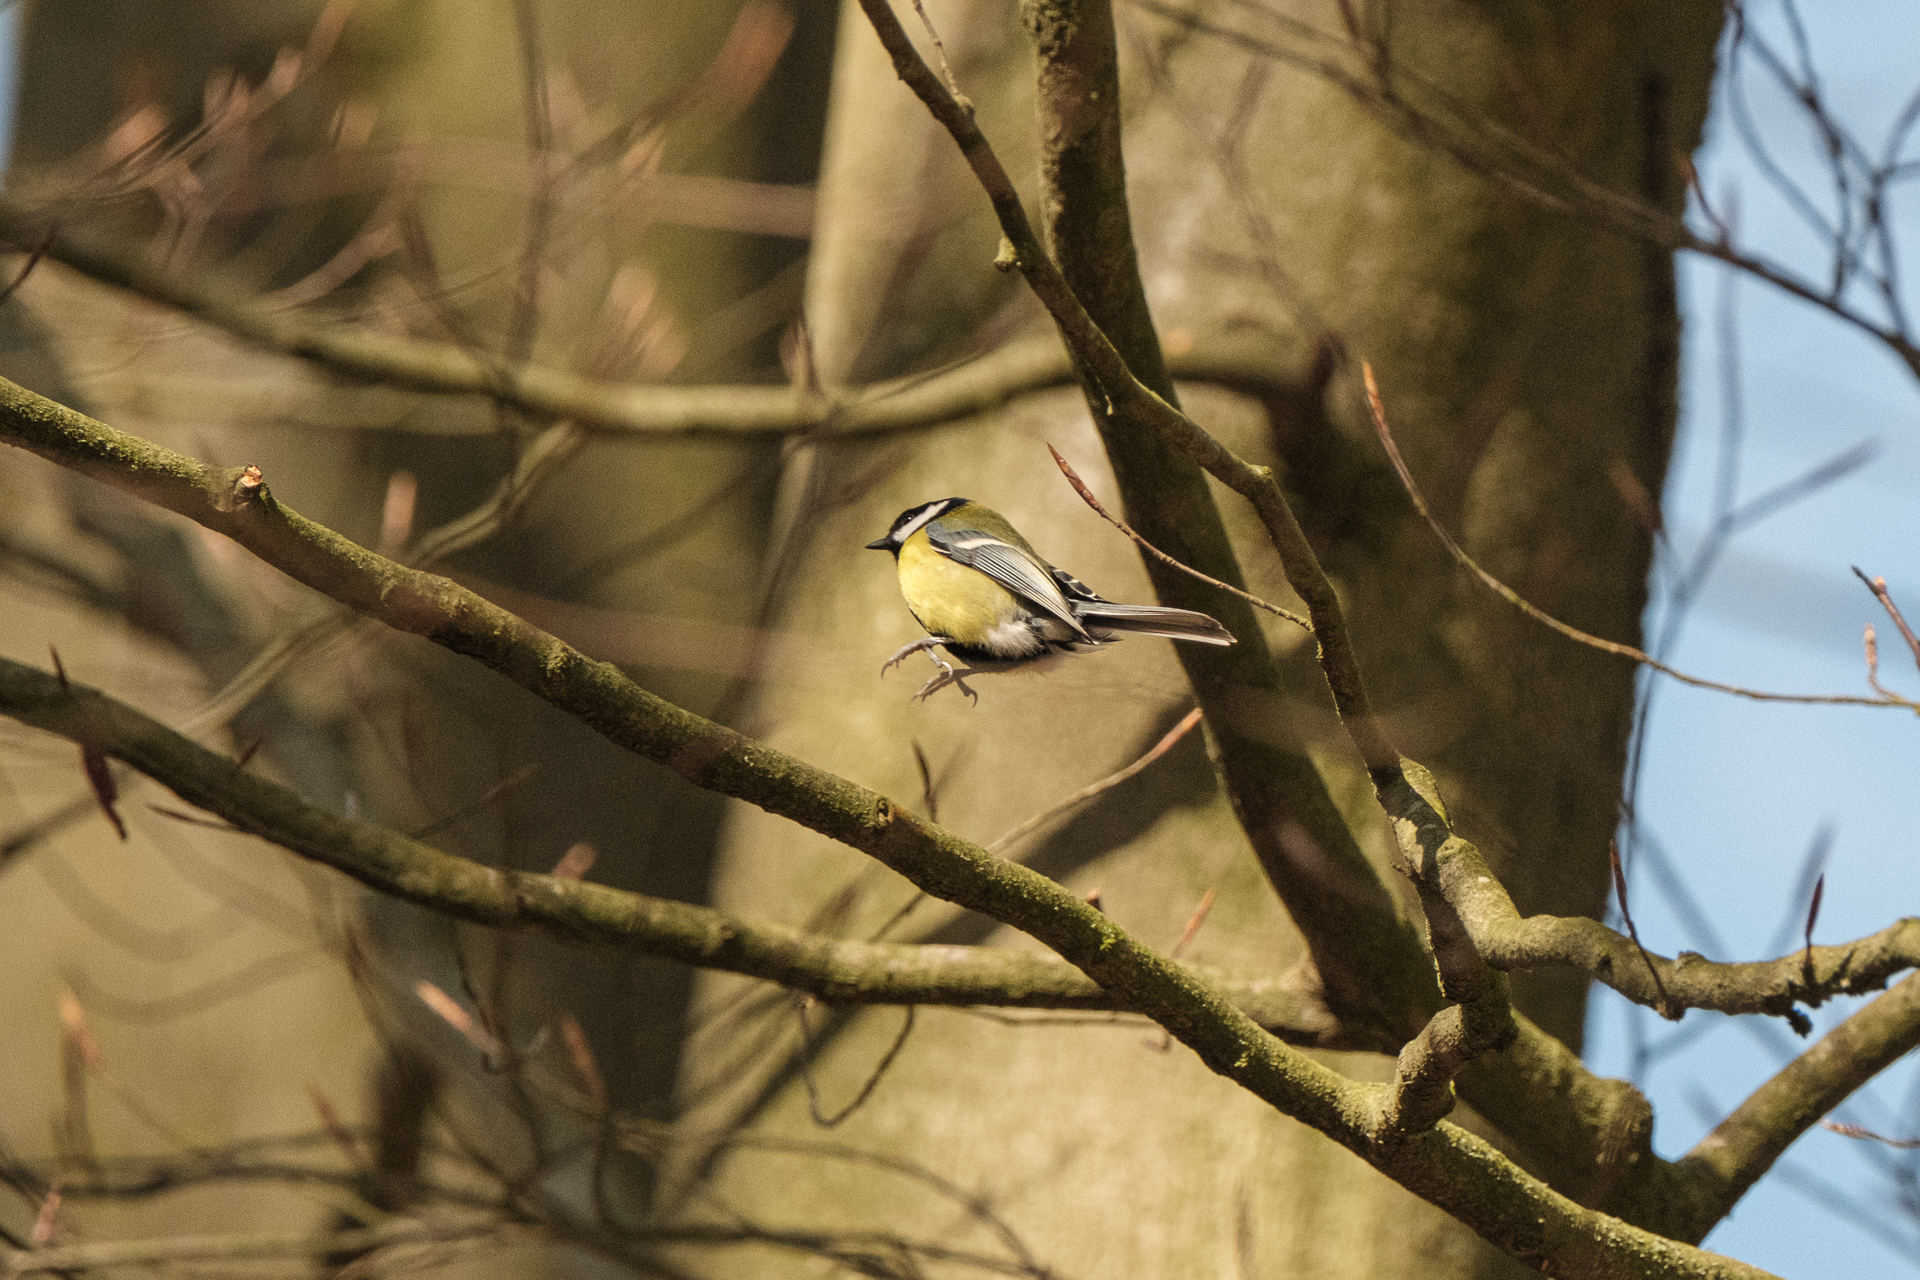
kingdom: Animalia
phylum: Chordata
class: Aves
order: Passeriformes
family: Paridae
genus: Parus
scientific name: Parus major
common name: Great tit
